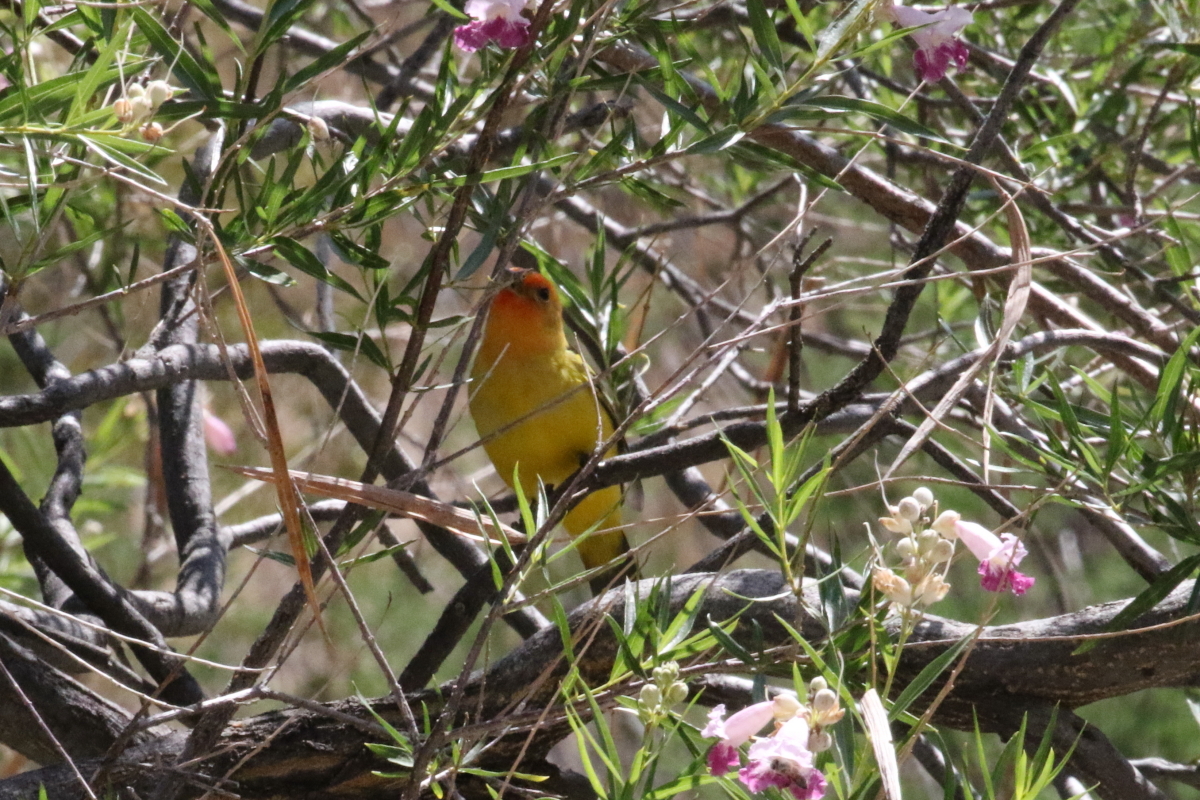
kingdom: Animalia
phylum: Chordata
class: Aves
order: Passeriformes
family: Cardinalidae
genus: Piranga
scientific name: Piranga ludoviciana
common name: Western tanager
